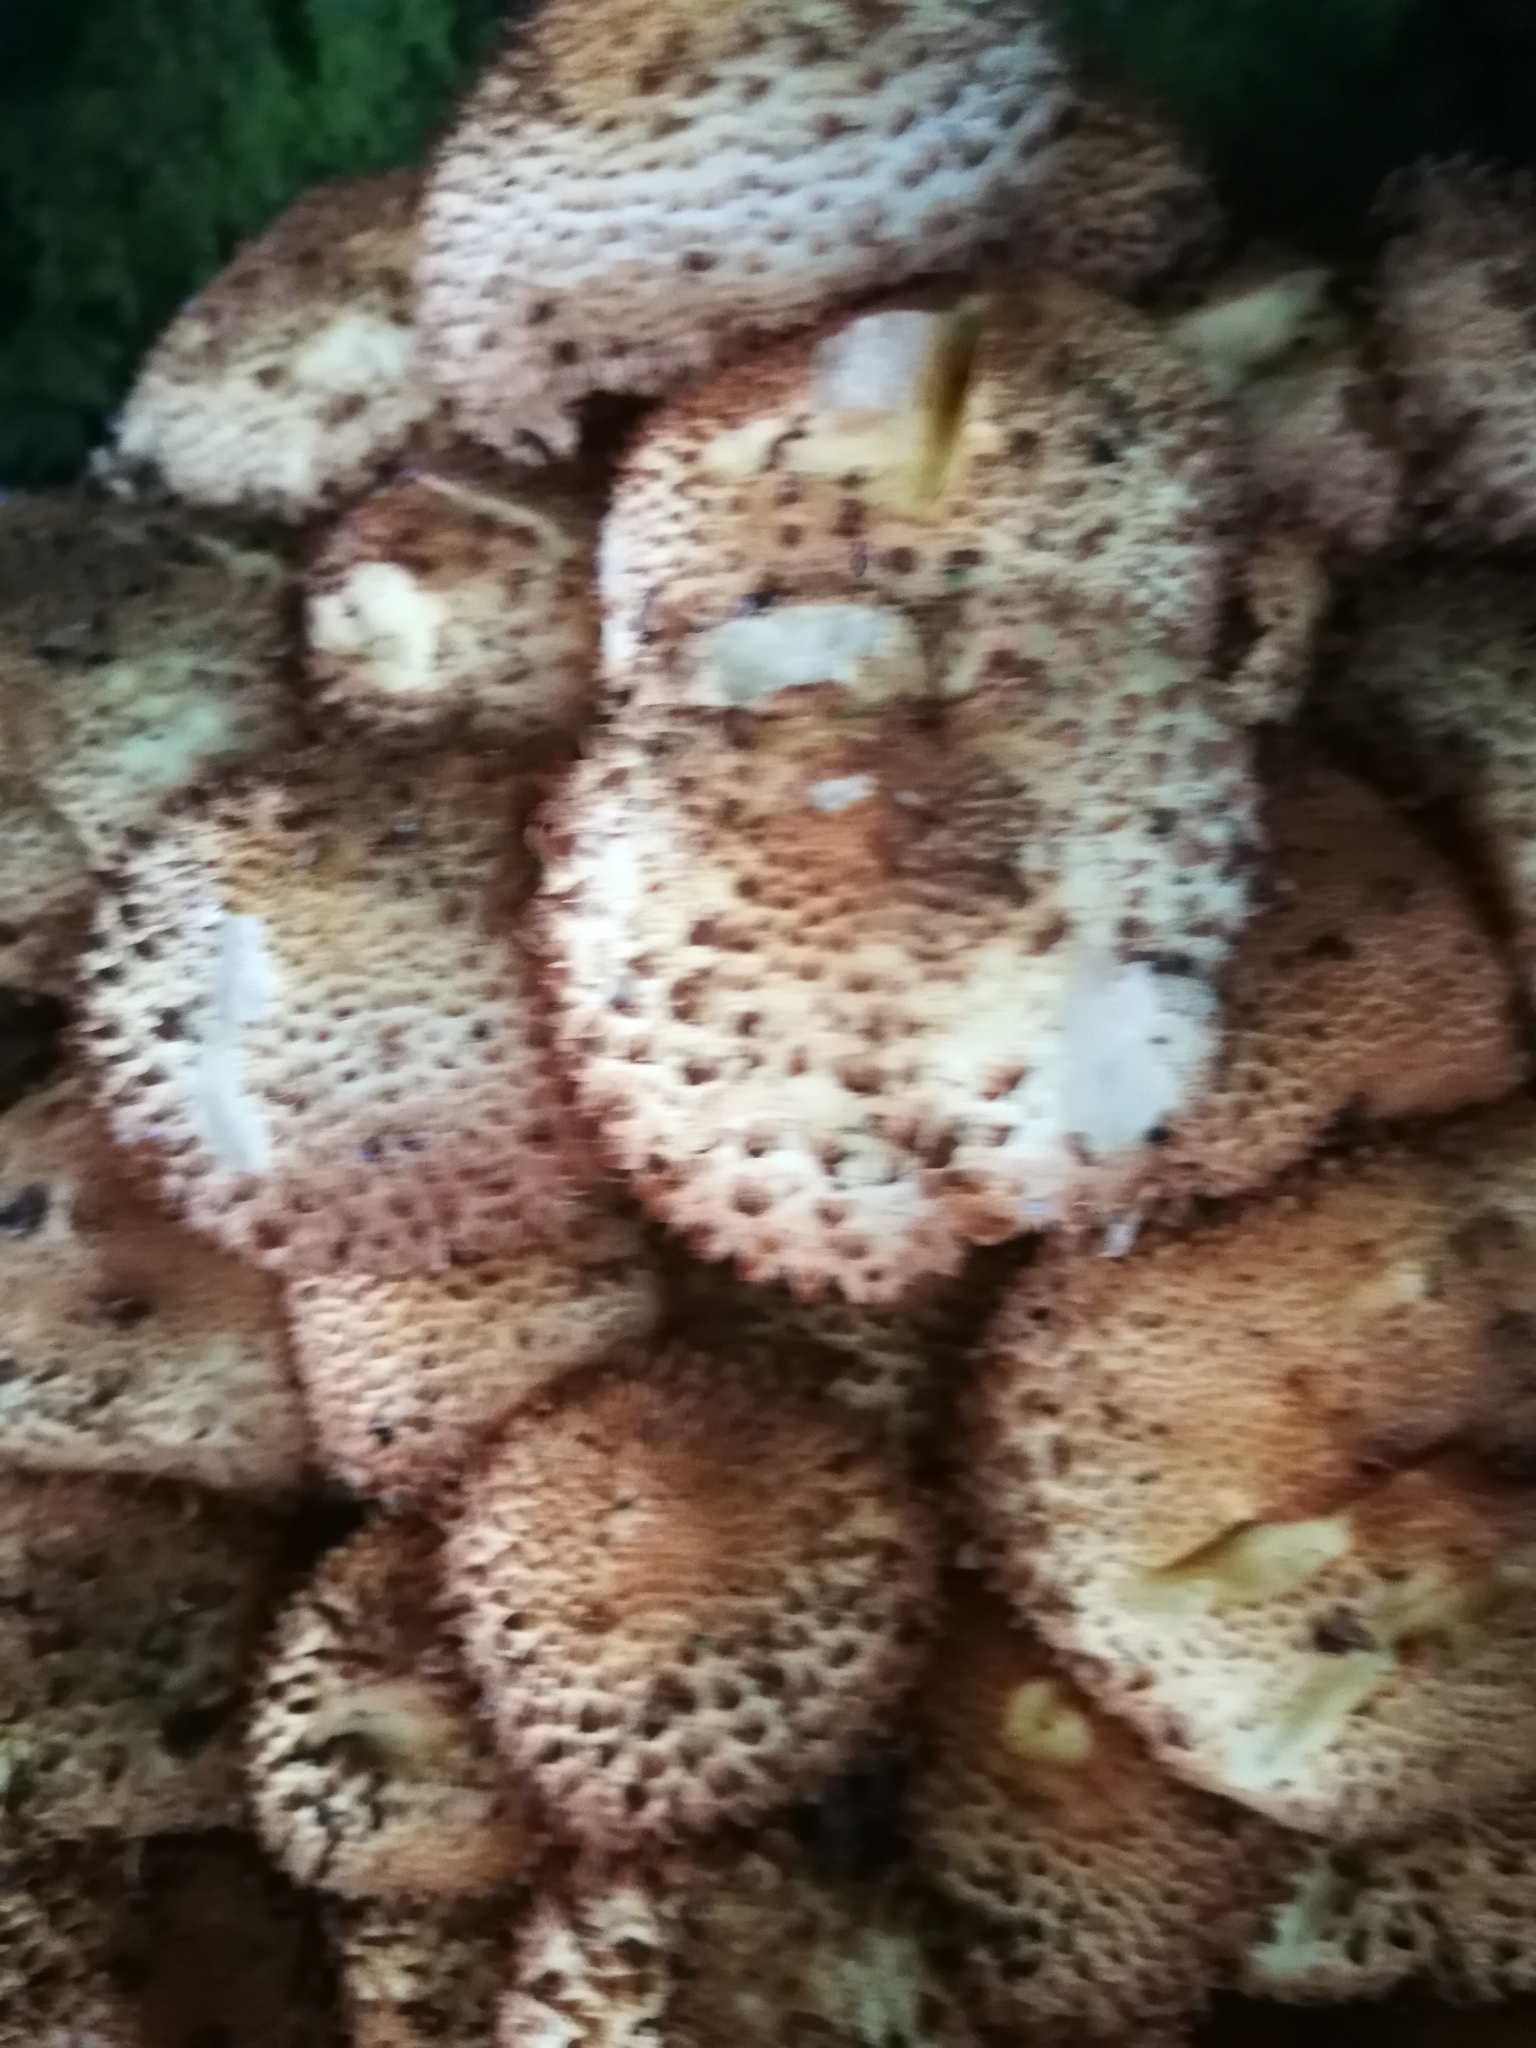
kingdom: Fungi
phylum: Basidiomycota
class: Agaricomycetes
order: Agaricales
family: Strophariaceae
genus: Pholiota
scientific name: Pholiota squarrosa
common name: Shaggy pholiota
